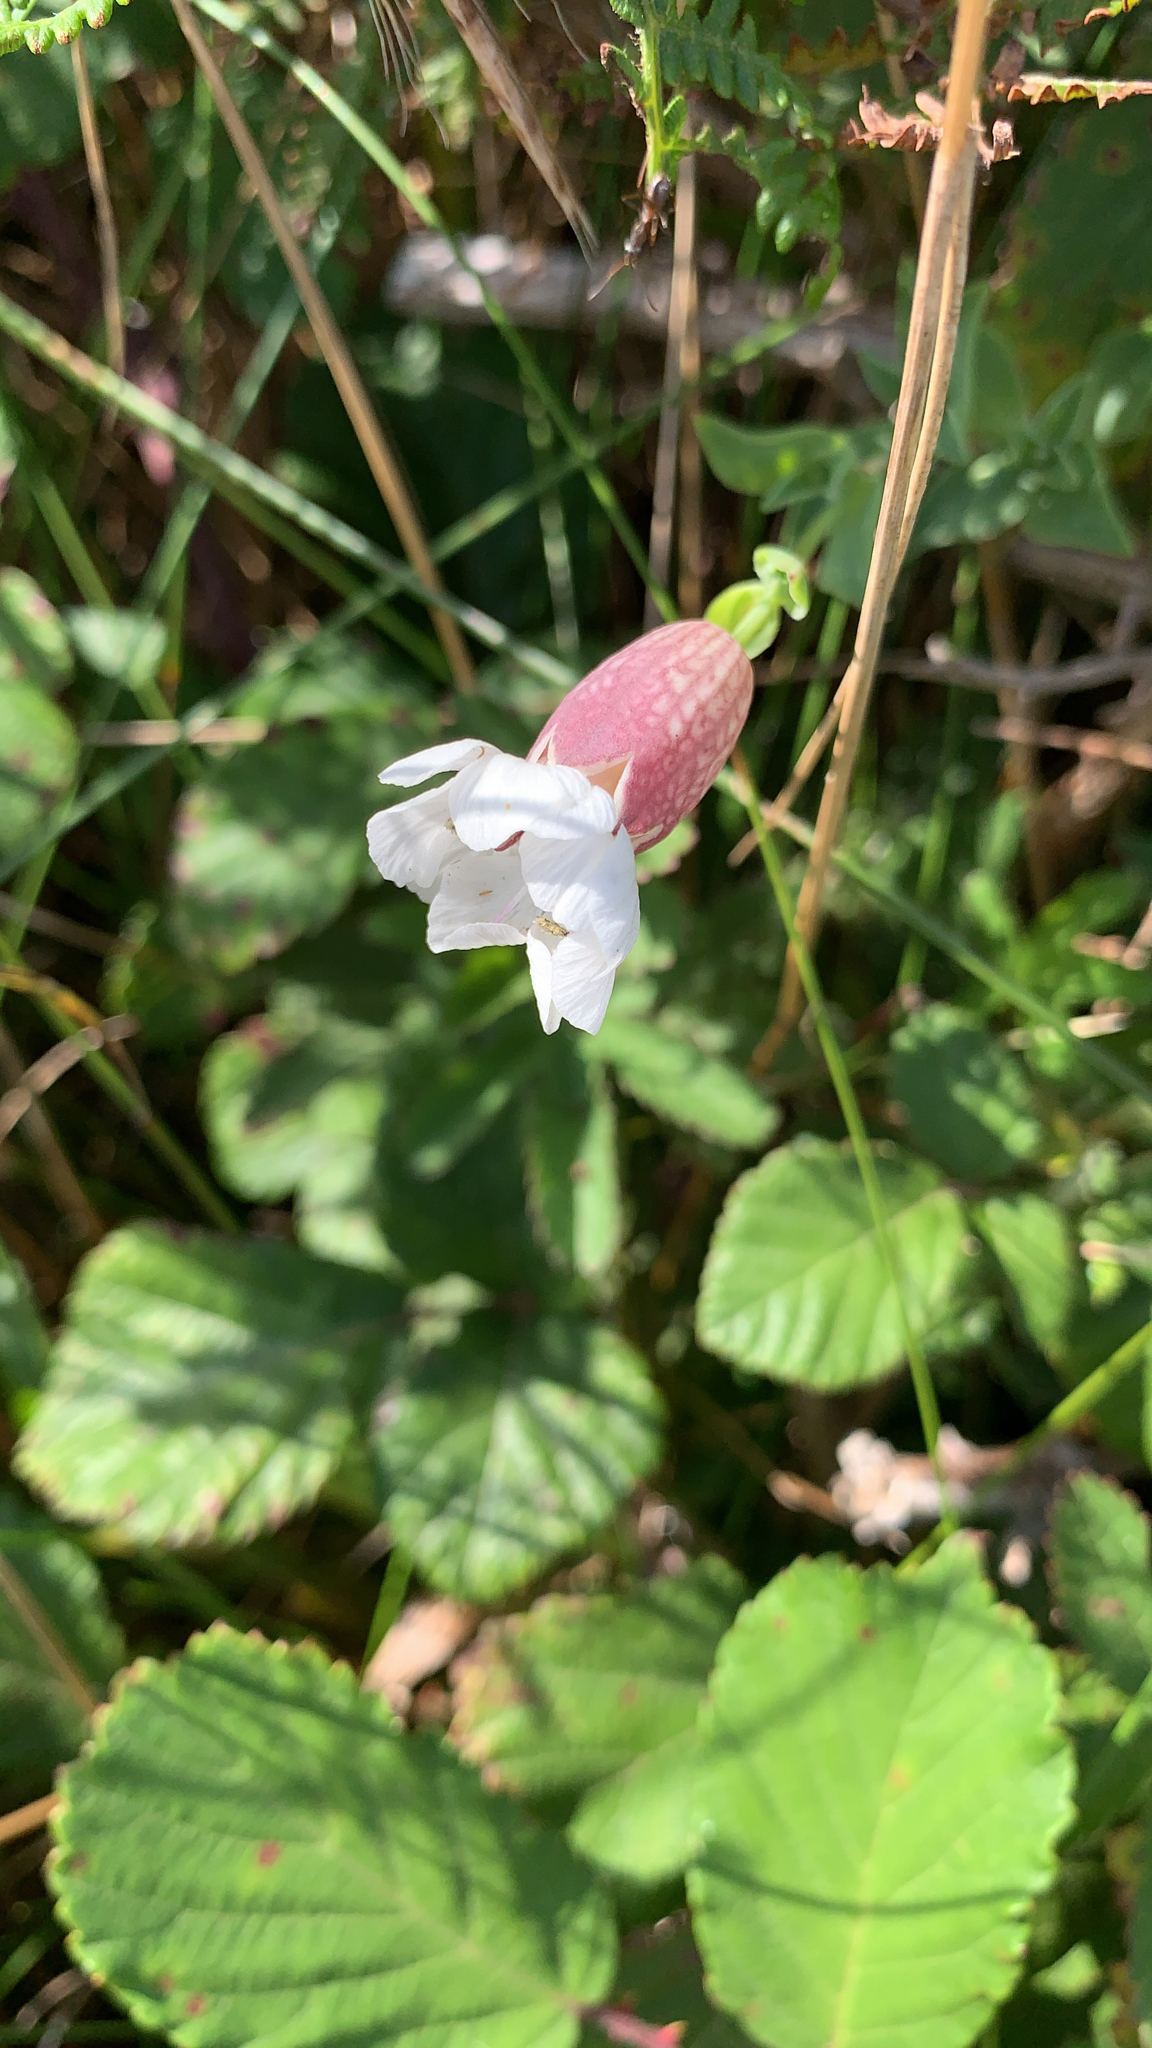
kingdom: Plantae
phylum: Tracheophyta
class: Magnoliopsida
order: Caryophyllales
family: Caryophyllaceae
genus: Silene
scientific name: Silene uniflora
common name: Sea campion
